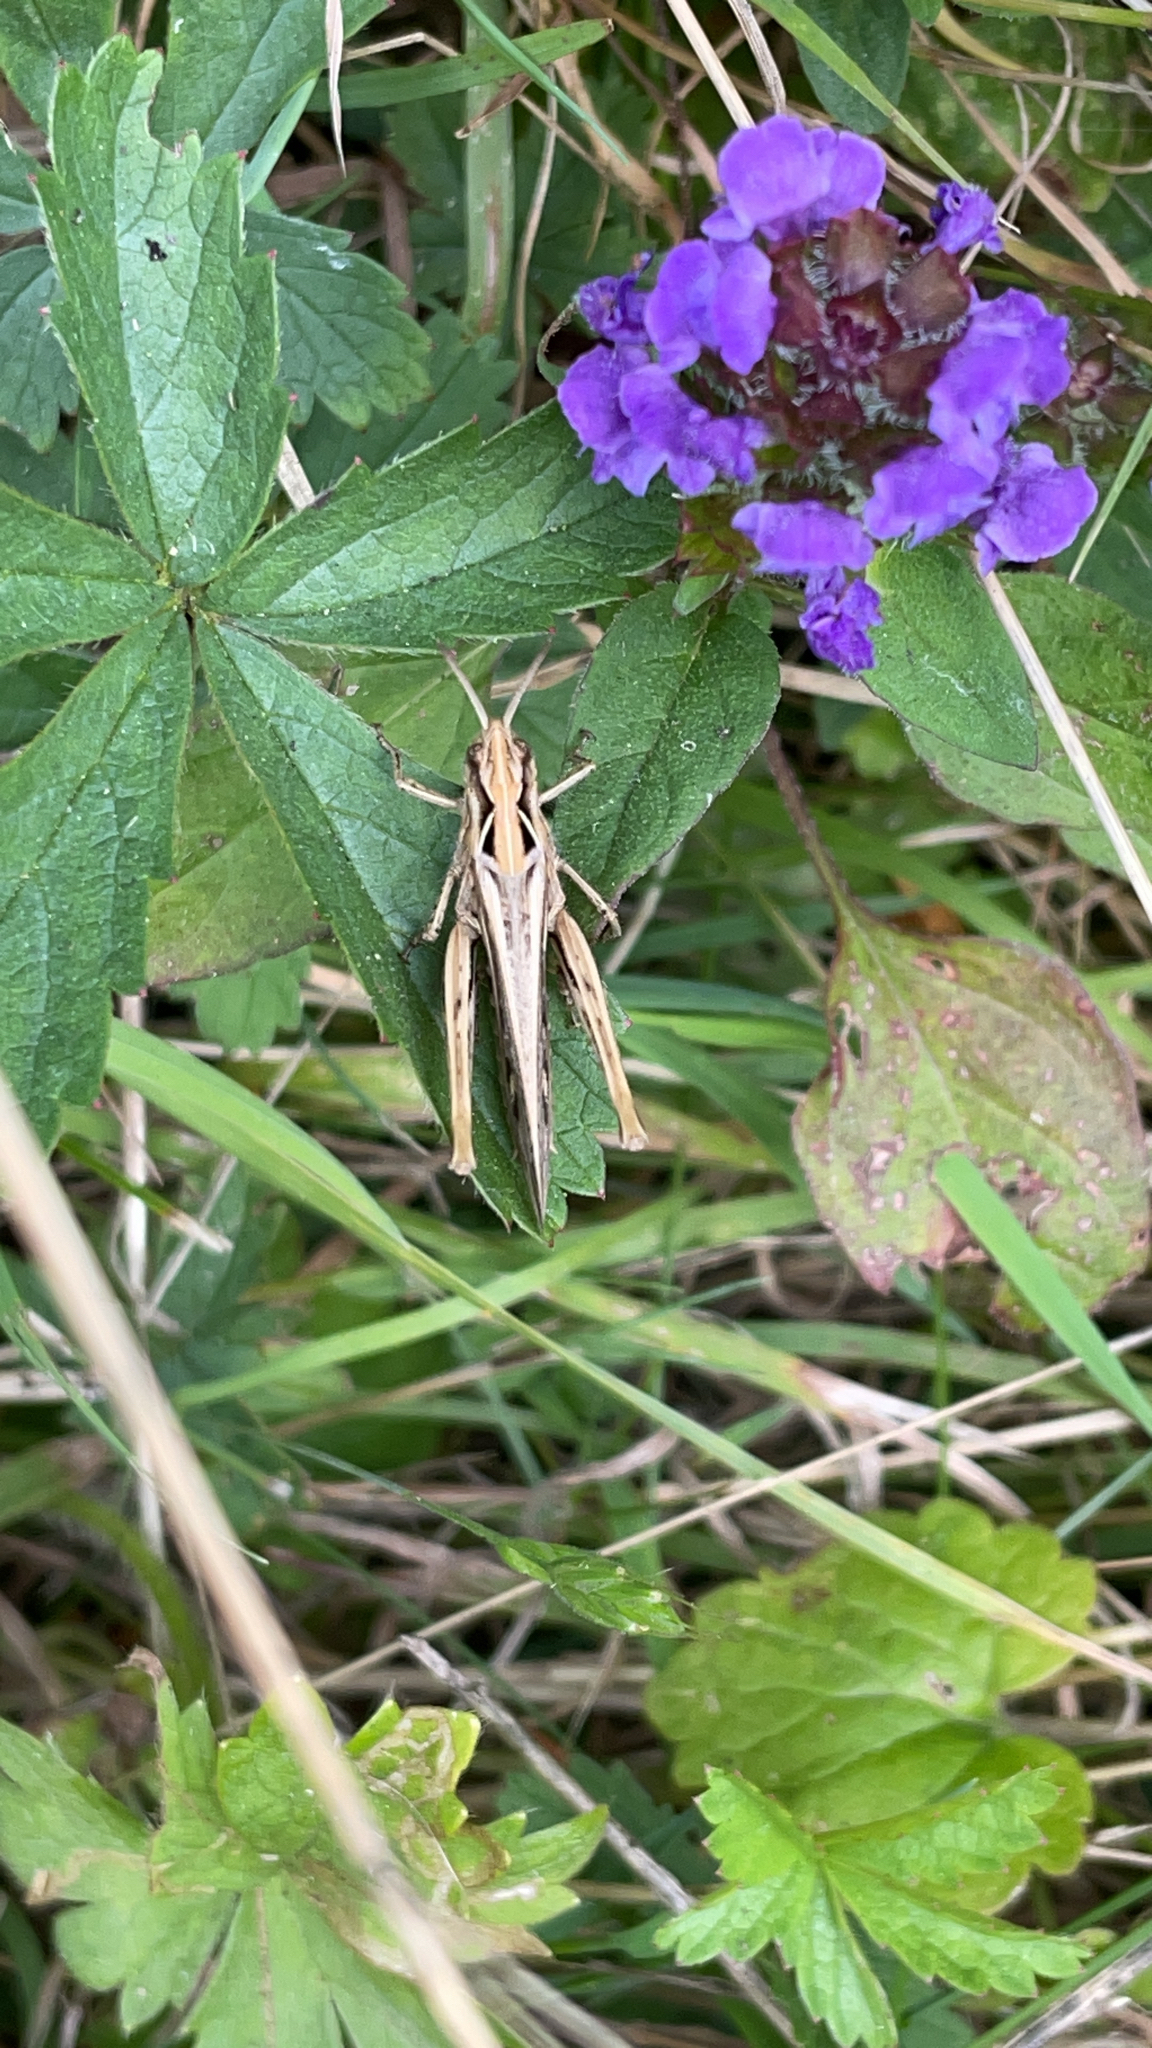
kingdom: Animalia
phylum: Arthropoda
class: Insecta
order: Orthoptera
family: Acrididae
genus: Chorthippus
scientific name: Chorthippus brunneus
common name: Field grasshopper
